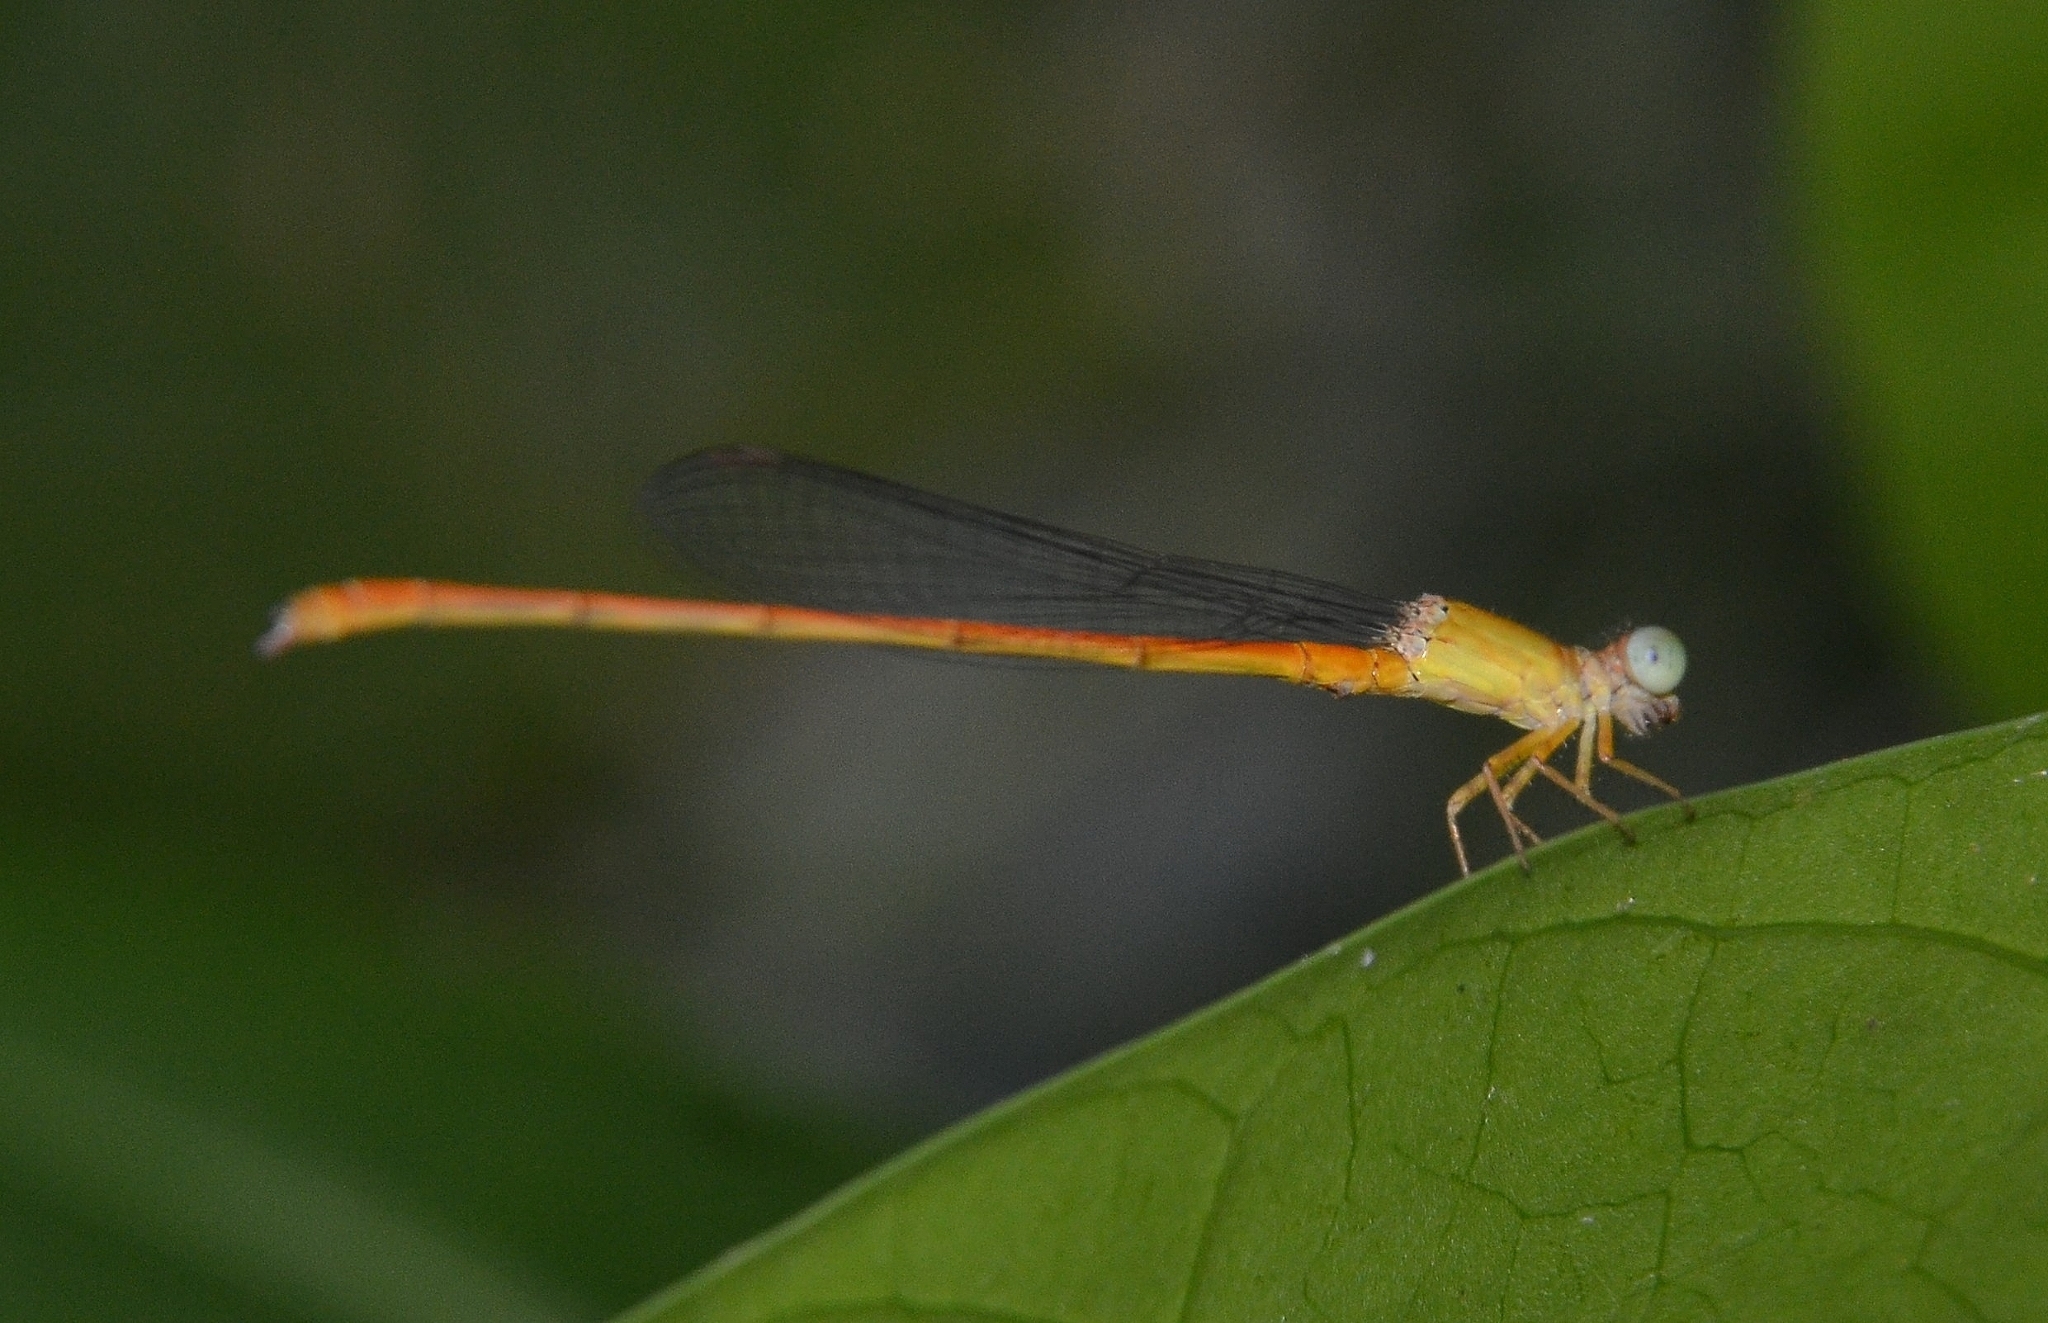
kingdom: Animalia
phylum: Arthropoda
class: Insecta
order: Odonata
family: Coenagrionidae
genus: Ceriagrion
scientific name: Ceriagrion rubiae
